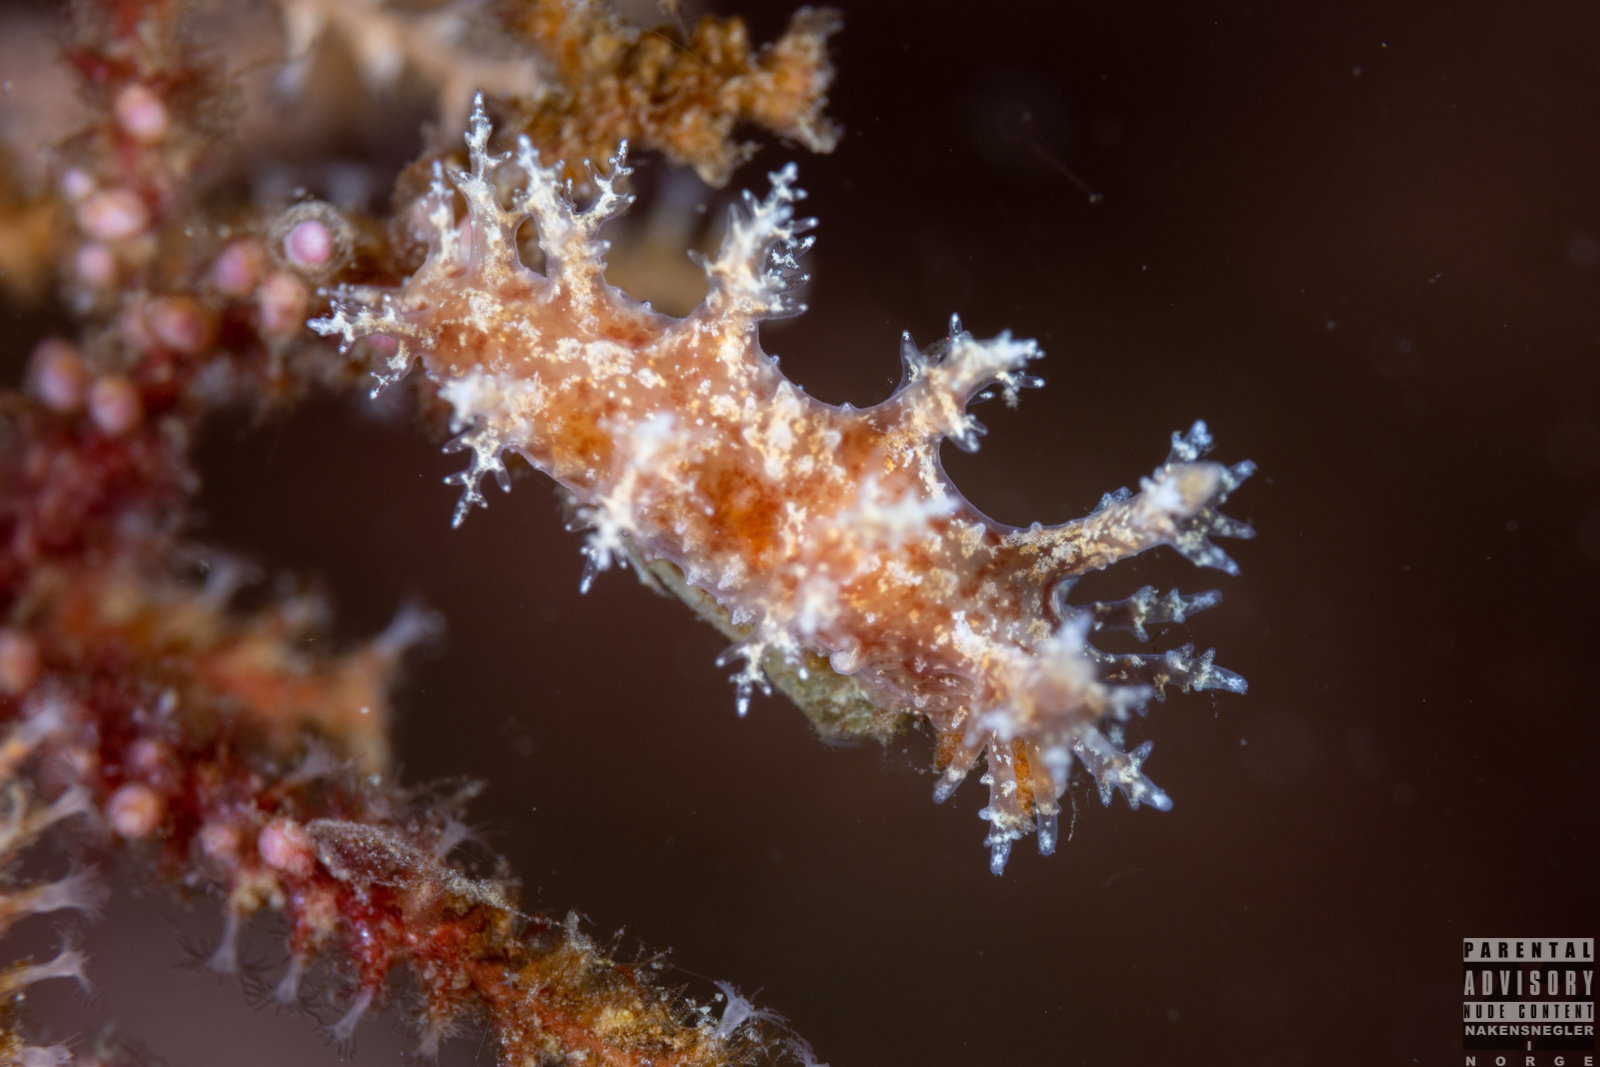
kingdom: Animalia
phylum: Mollusca
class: Gastropoda
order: Nudibranchia
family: Dendronotidae
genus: Dendronotus
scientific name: Dendronotus frondosus
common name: Bushy-backed nudibranch
